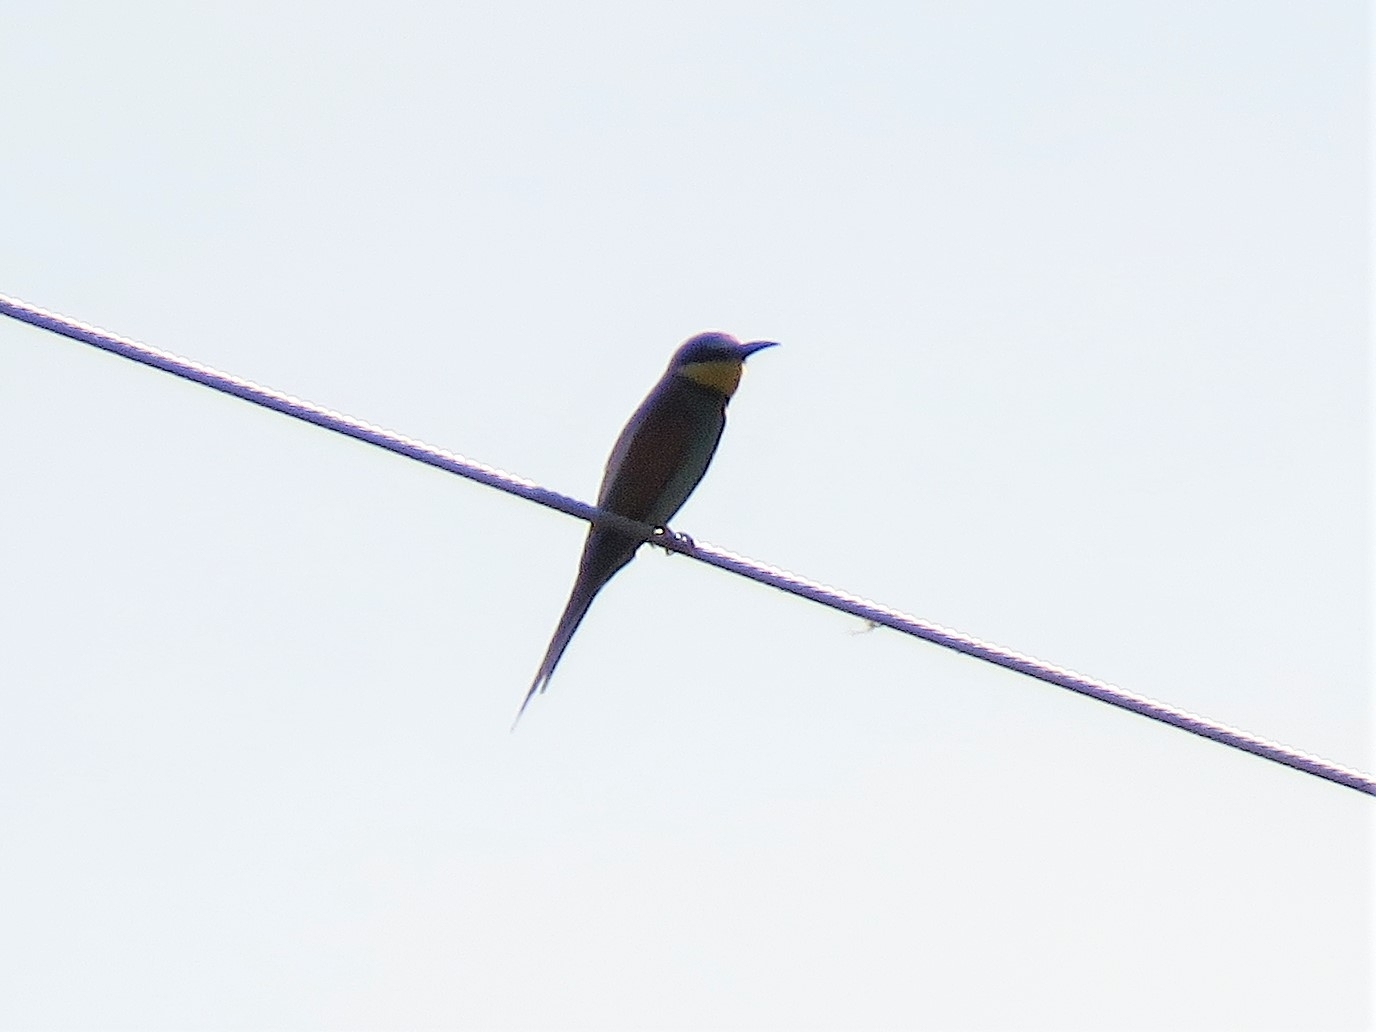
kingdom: Animalia
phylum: Chordata
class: Aves
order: Coraciiformes
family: Meropidae
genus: Merops
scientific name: Merops apiaster
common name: European bee-eater
